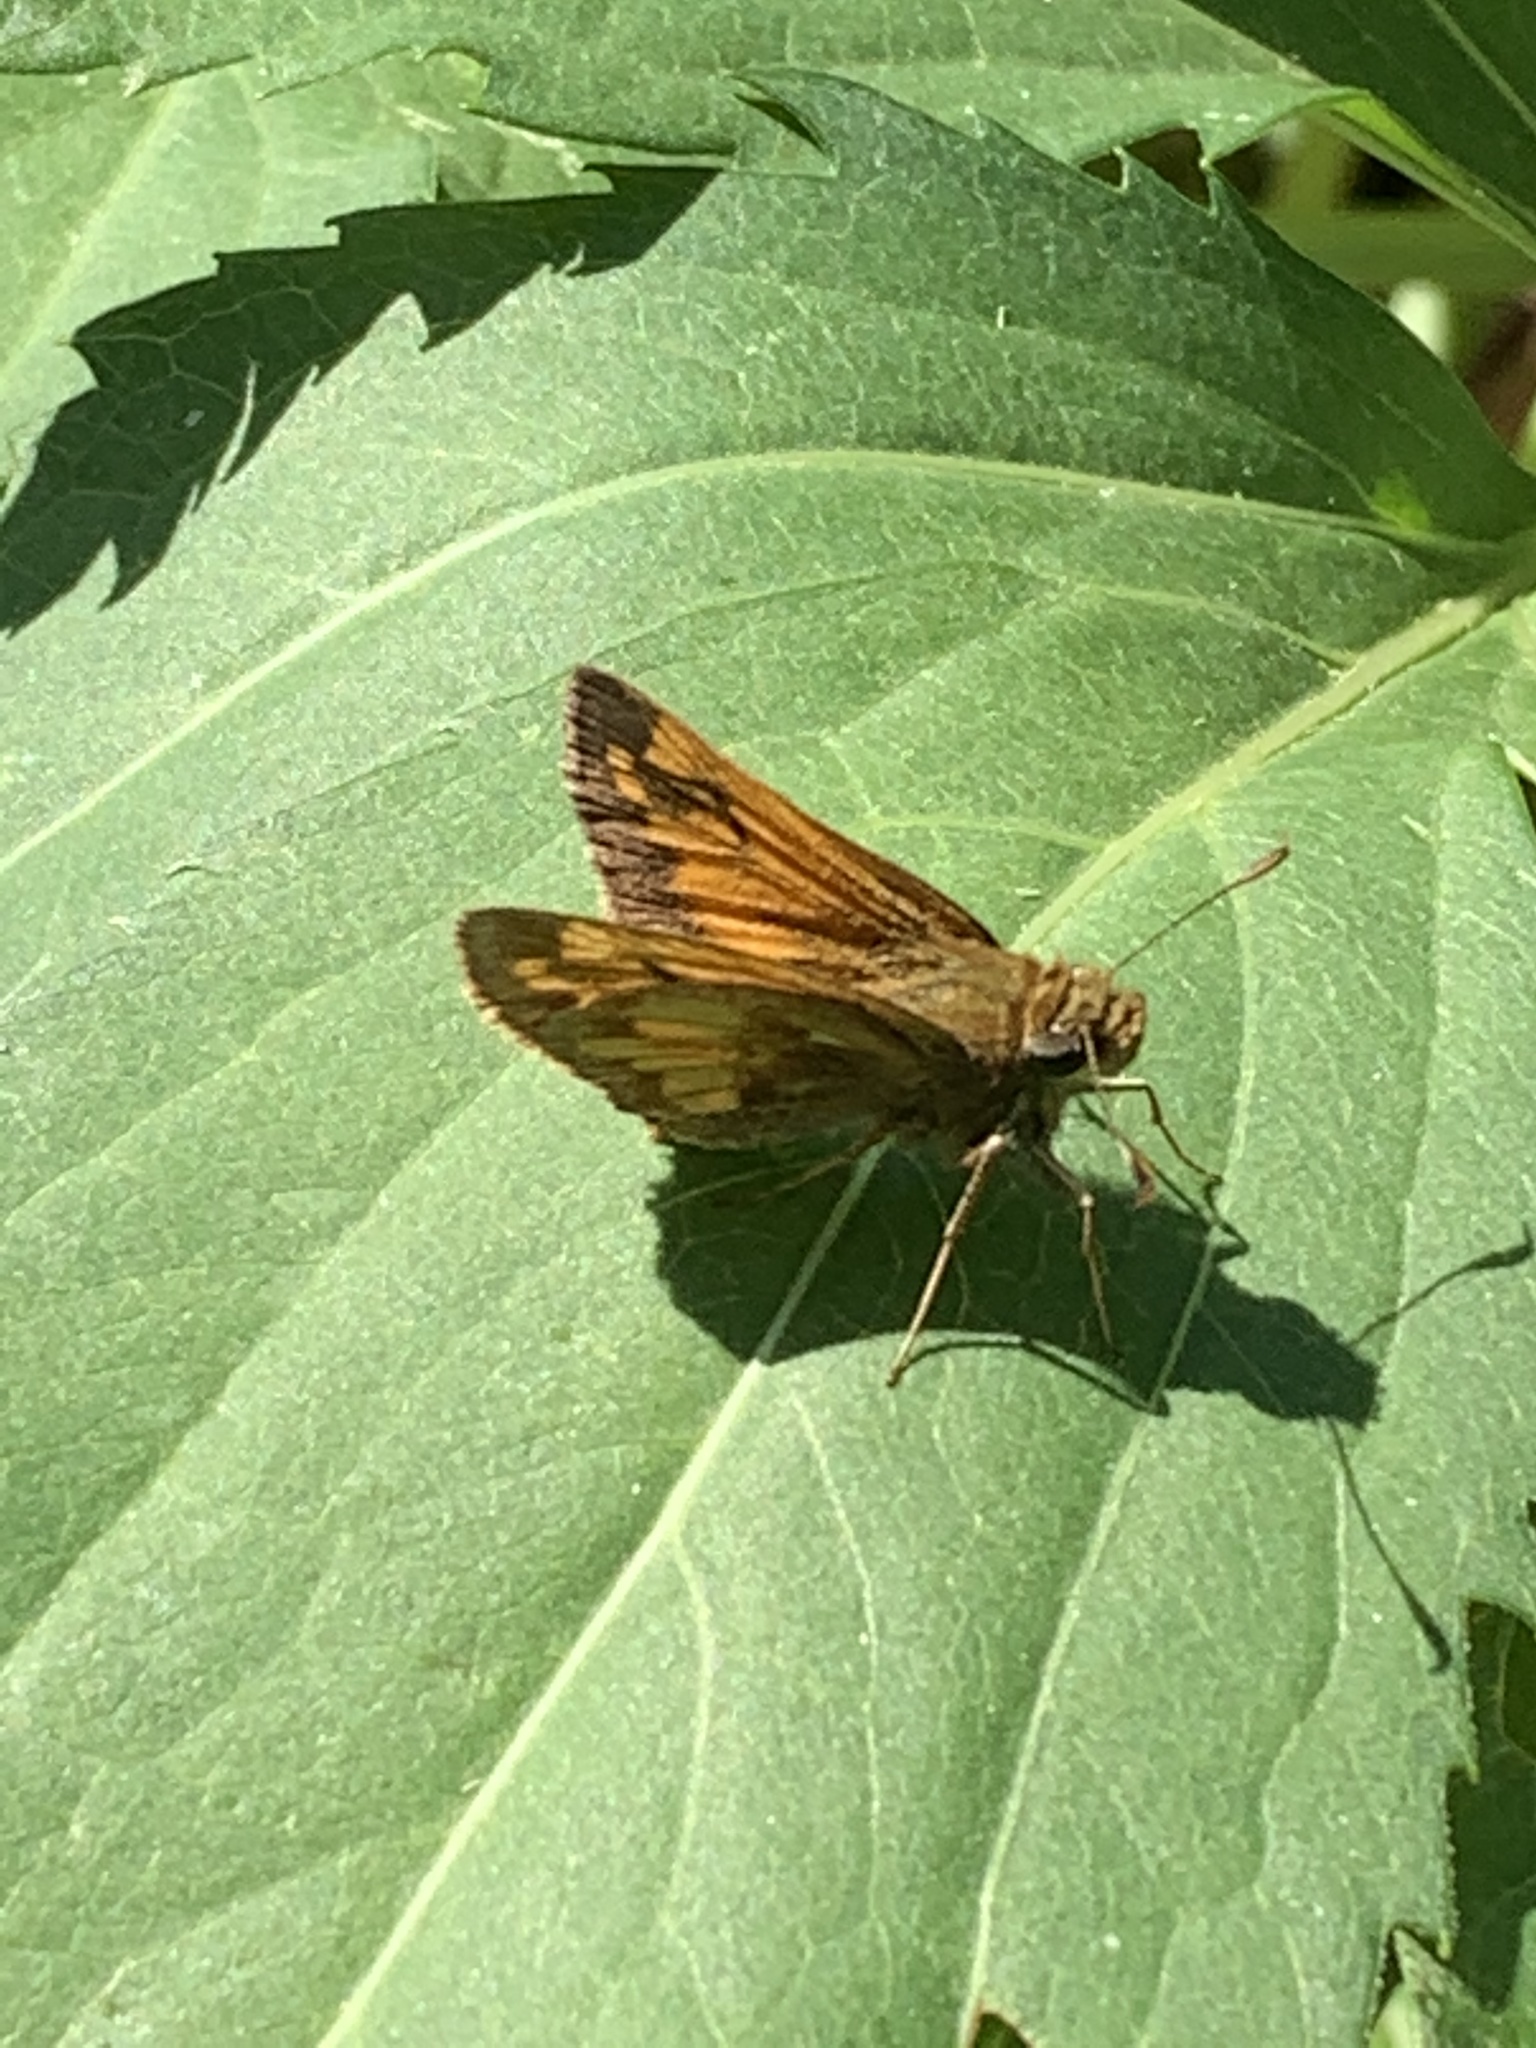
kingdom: Animalia
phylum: Arthropoda
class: Insecta
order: Lepidoptera
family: Hesperiidae
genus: Lon
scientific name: Lon hobomok
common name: Hobomok skipper
